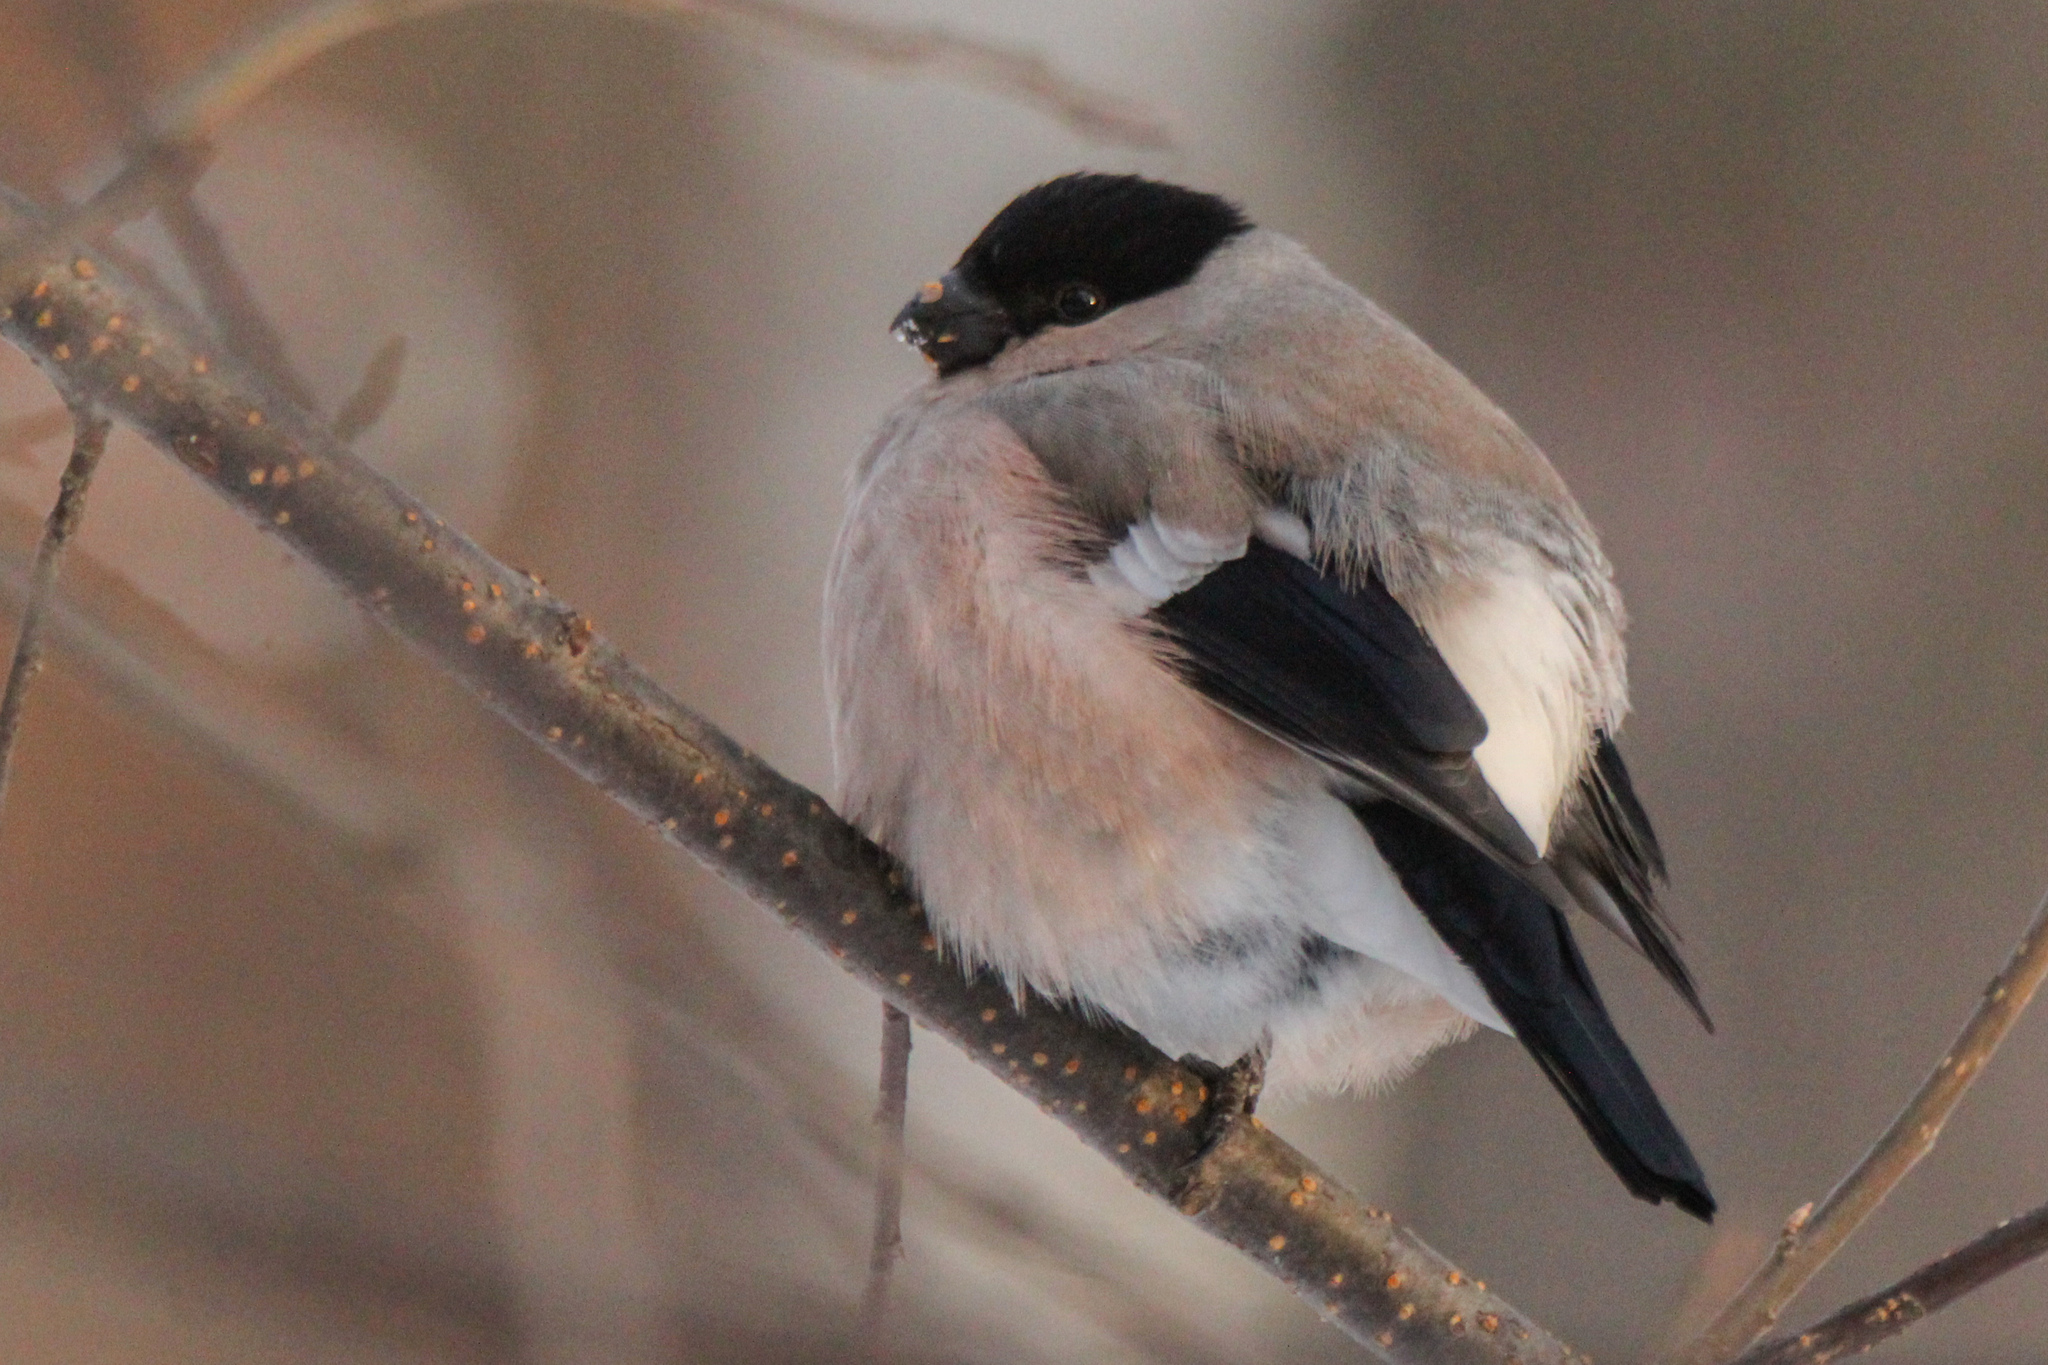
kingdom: Animalia
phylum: Chordata
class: Aves
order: Passeriformes
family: Fringillidae
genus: Pyrrhula
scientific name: Pyrrhula pyrrhula
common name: Eurasian bullfinch
